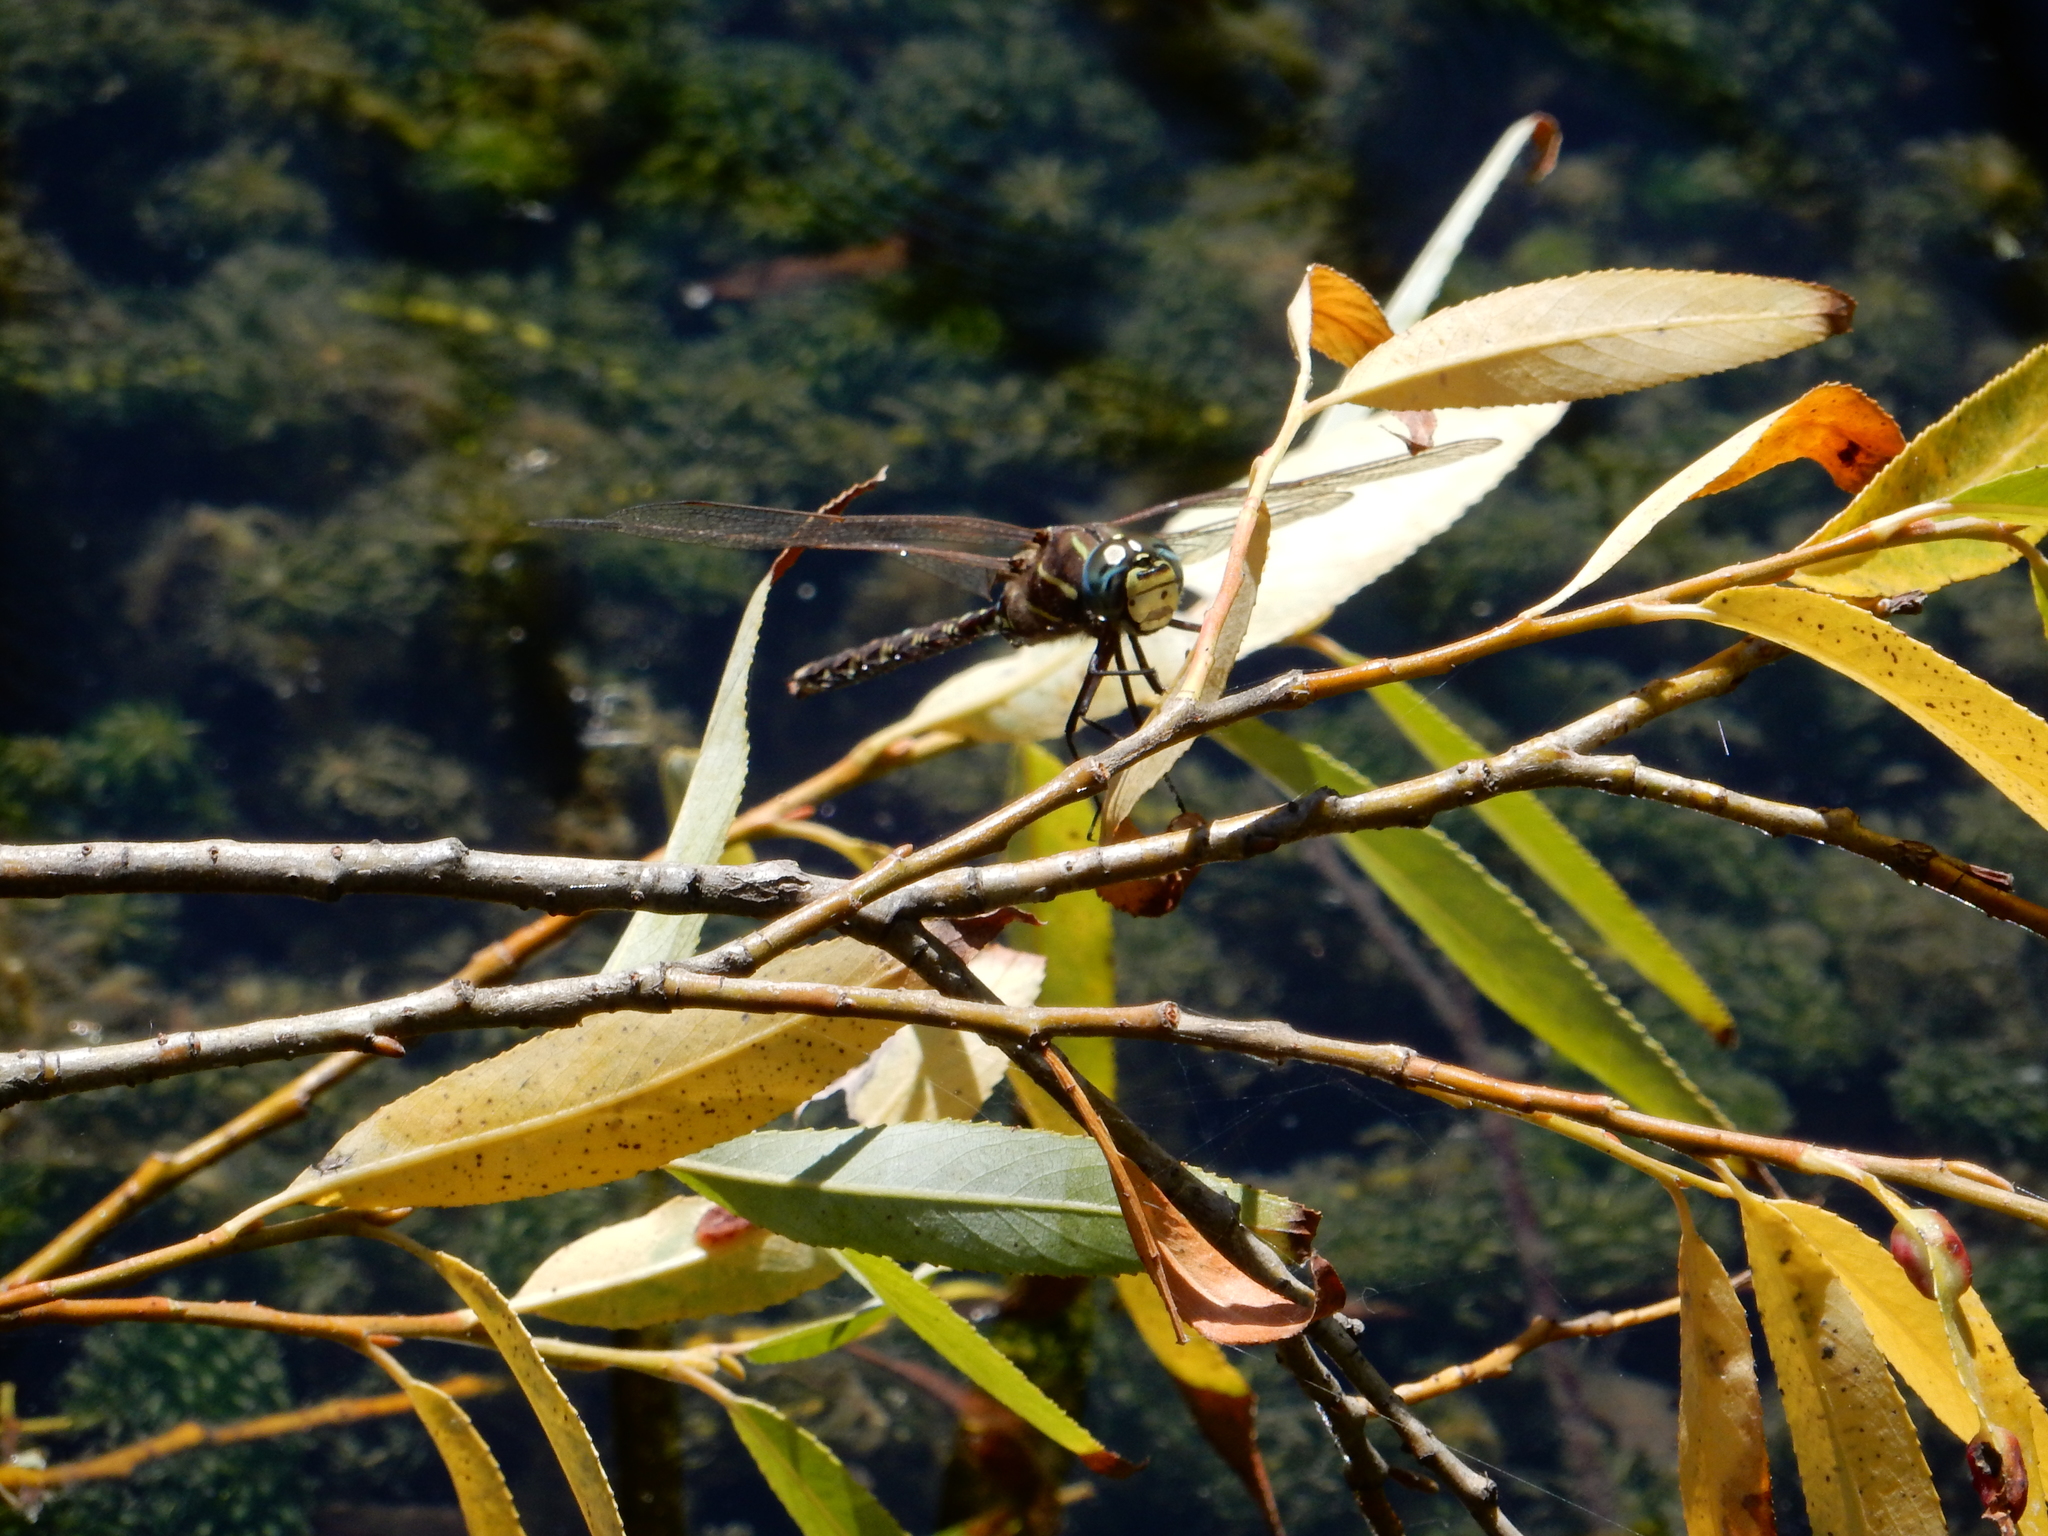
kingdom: Animalia
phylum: Arthropoda
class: Insecta
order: Odonata
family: Aeshnidae
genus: Aeshna
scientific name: Aeshna brevistyla
